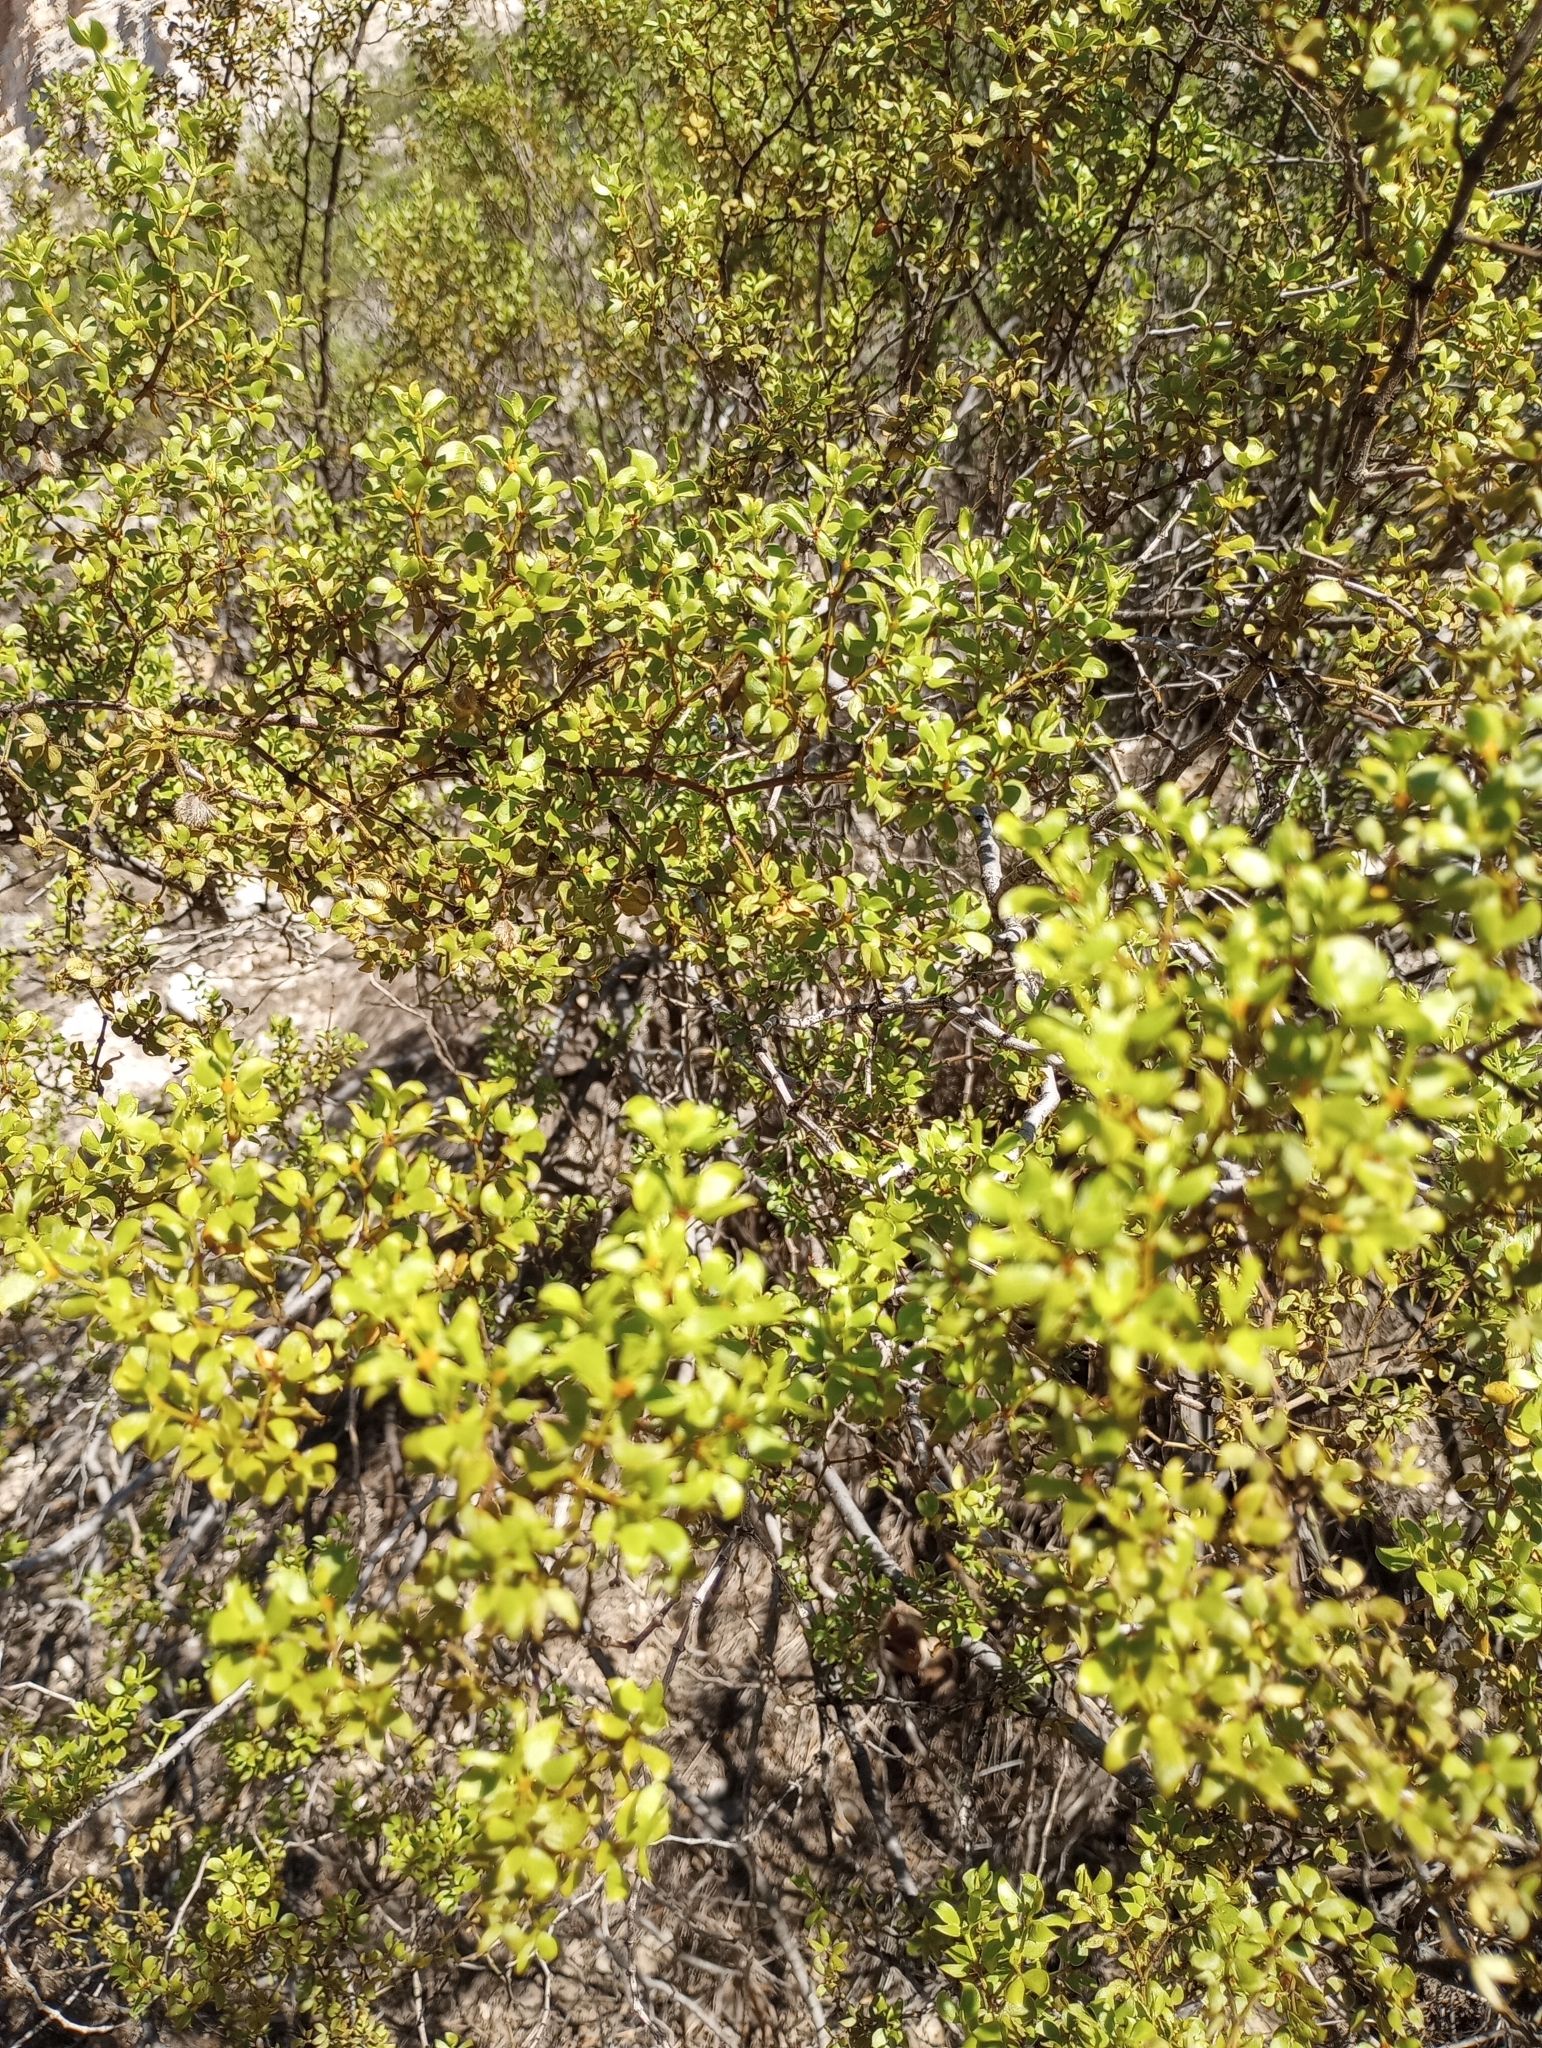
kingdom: Plantae
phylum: Tracheophyta
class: Magnoliopsida
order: Zygophyllales
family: Zygophyllaceae
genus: Larrea
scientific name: Larrea tridentata
